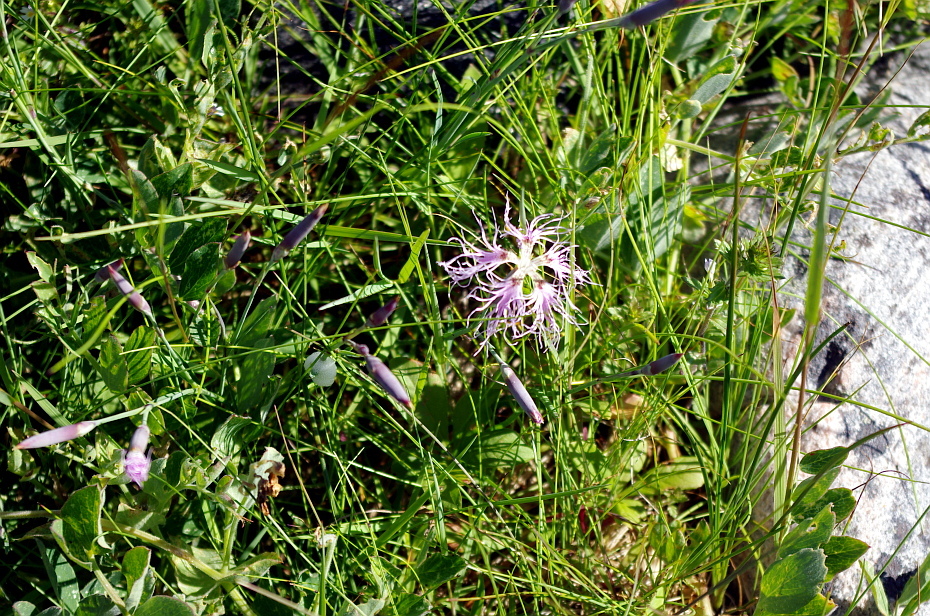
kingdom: Plantae
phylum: Tracheophyta
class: Magnoliopsida
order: Caryophyllales
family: Caryophyllaceae
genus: Dianthus
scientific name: Dianthus superbus
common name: Fringed pink
